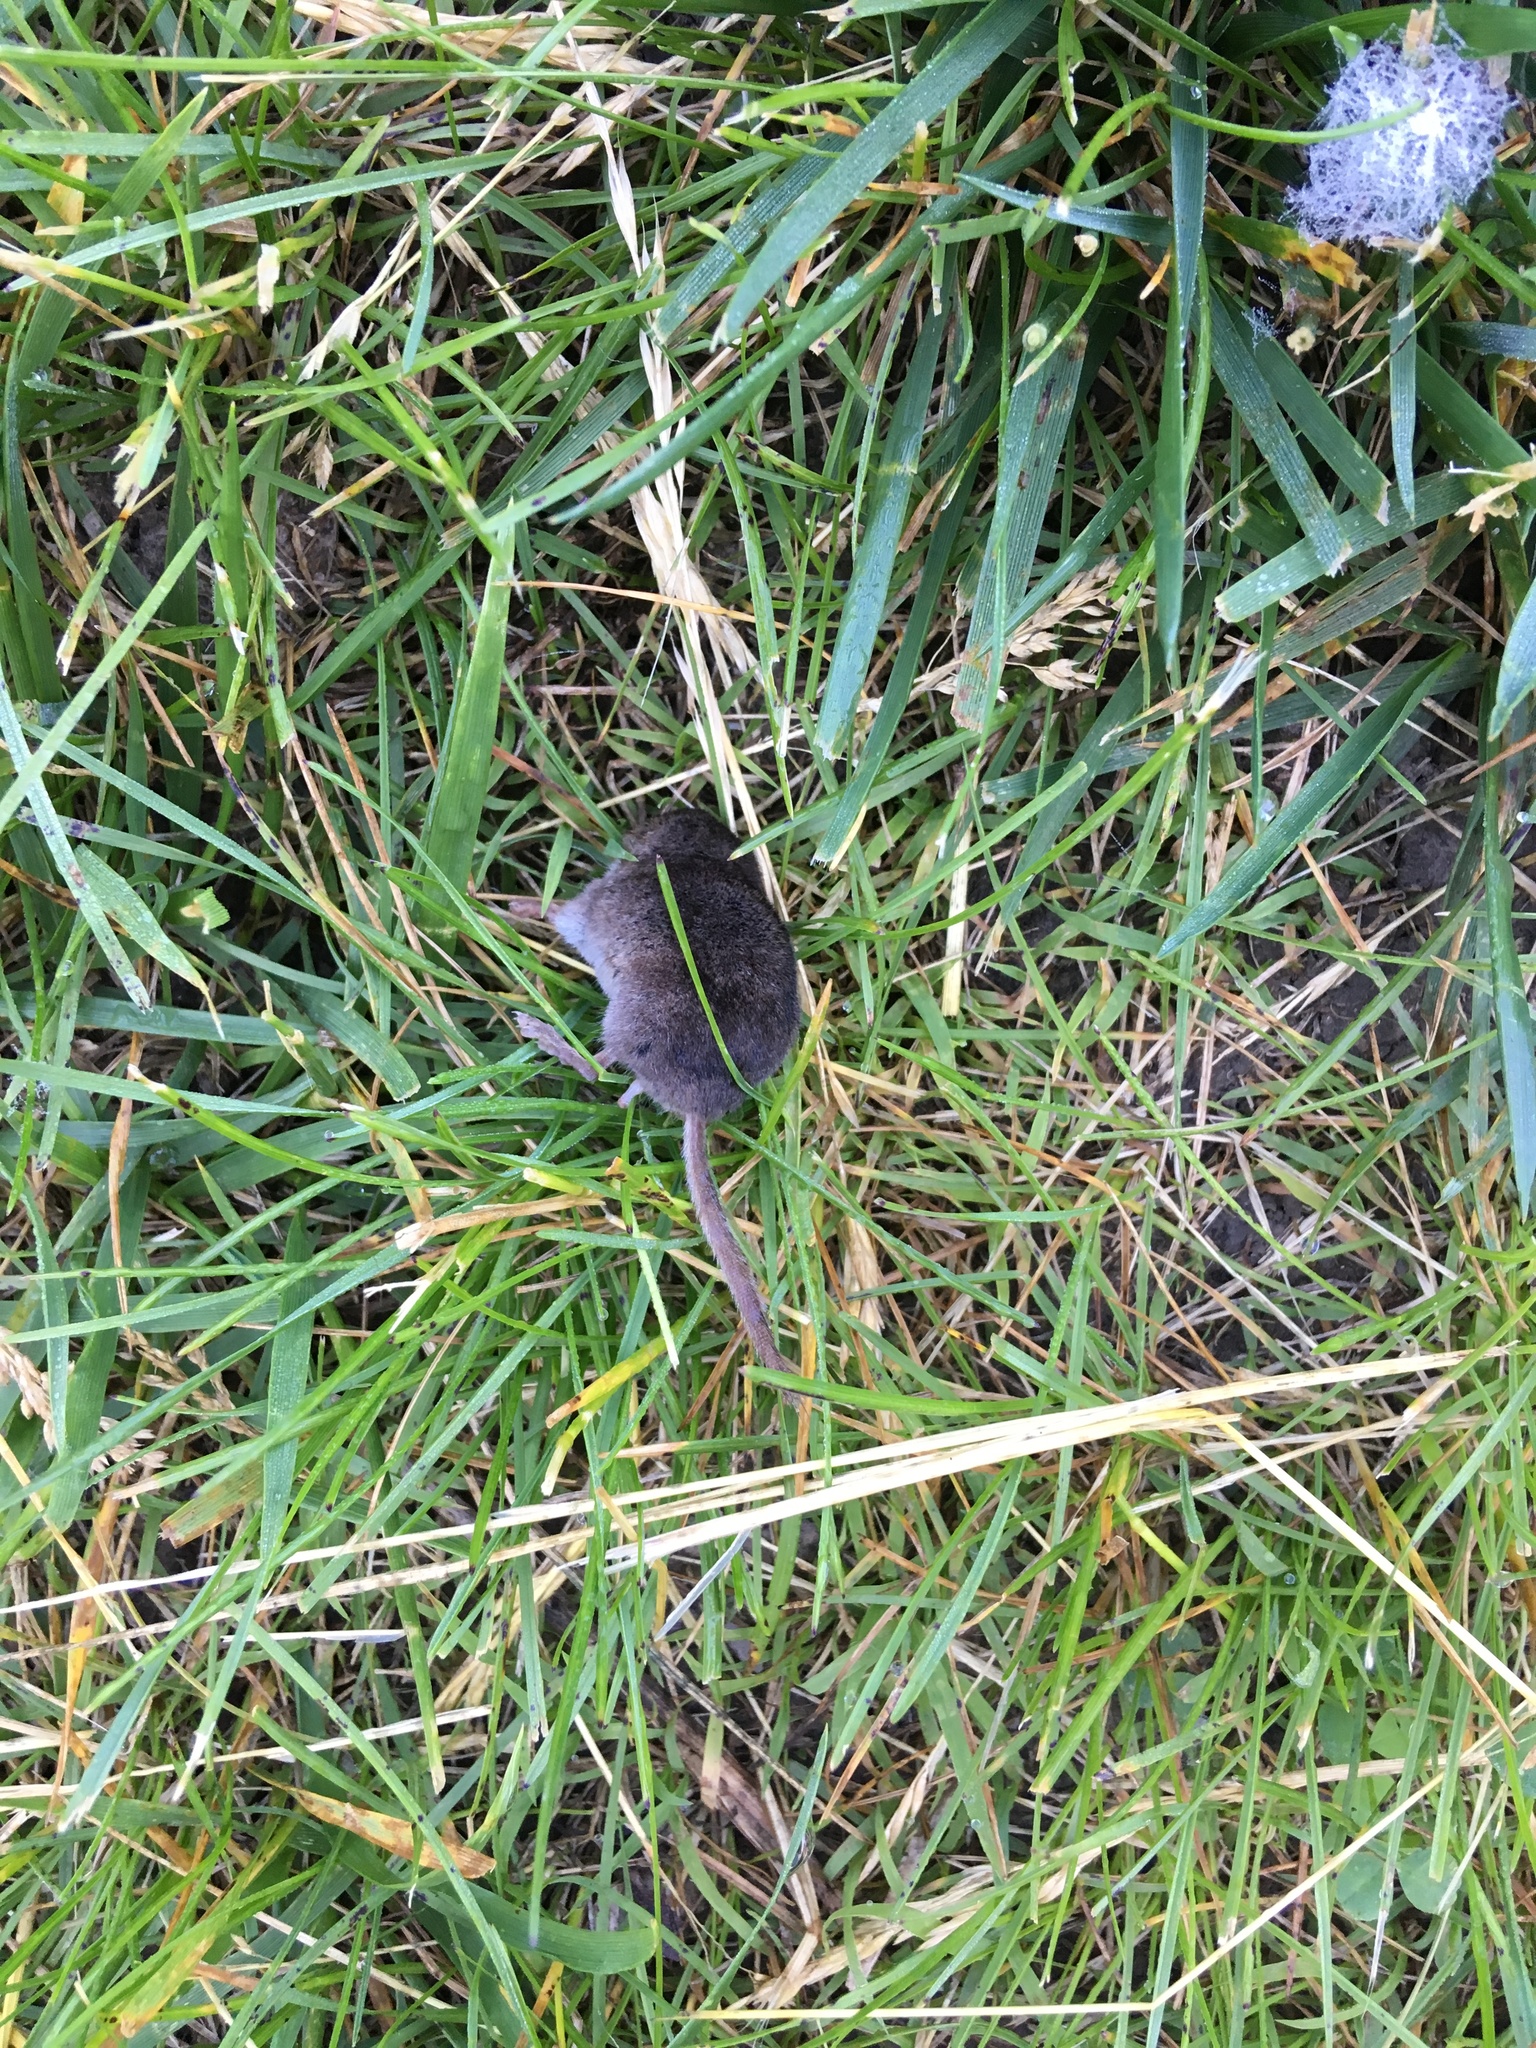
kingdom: Animalia
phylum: Chordata
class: Mammalia
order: Soricomorpha
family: Soricidae
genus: Sorex
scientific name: Sorex cinereus
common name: Cinereus shrew
